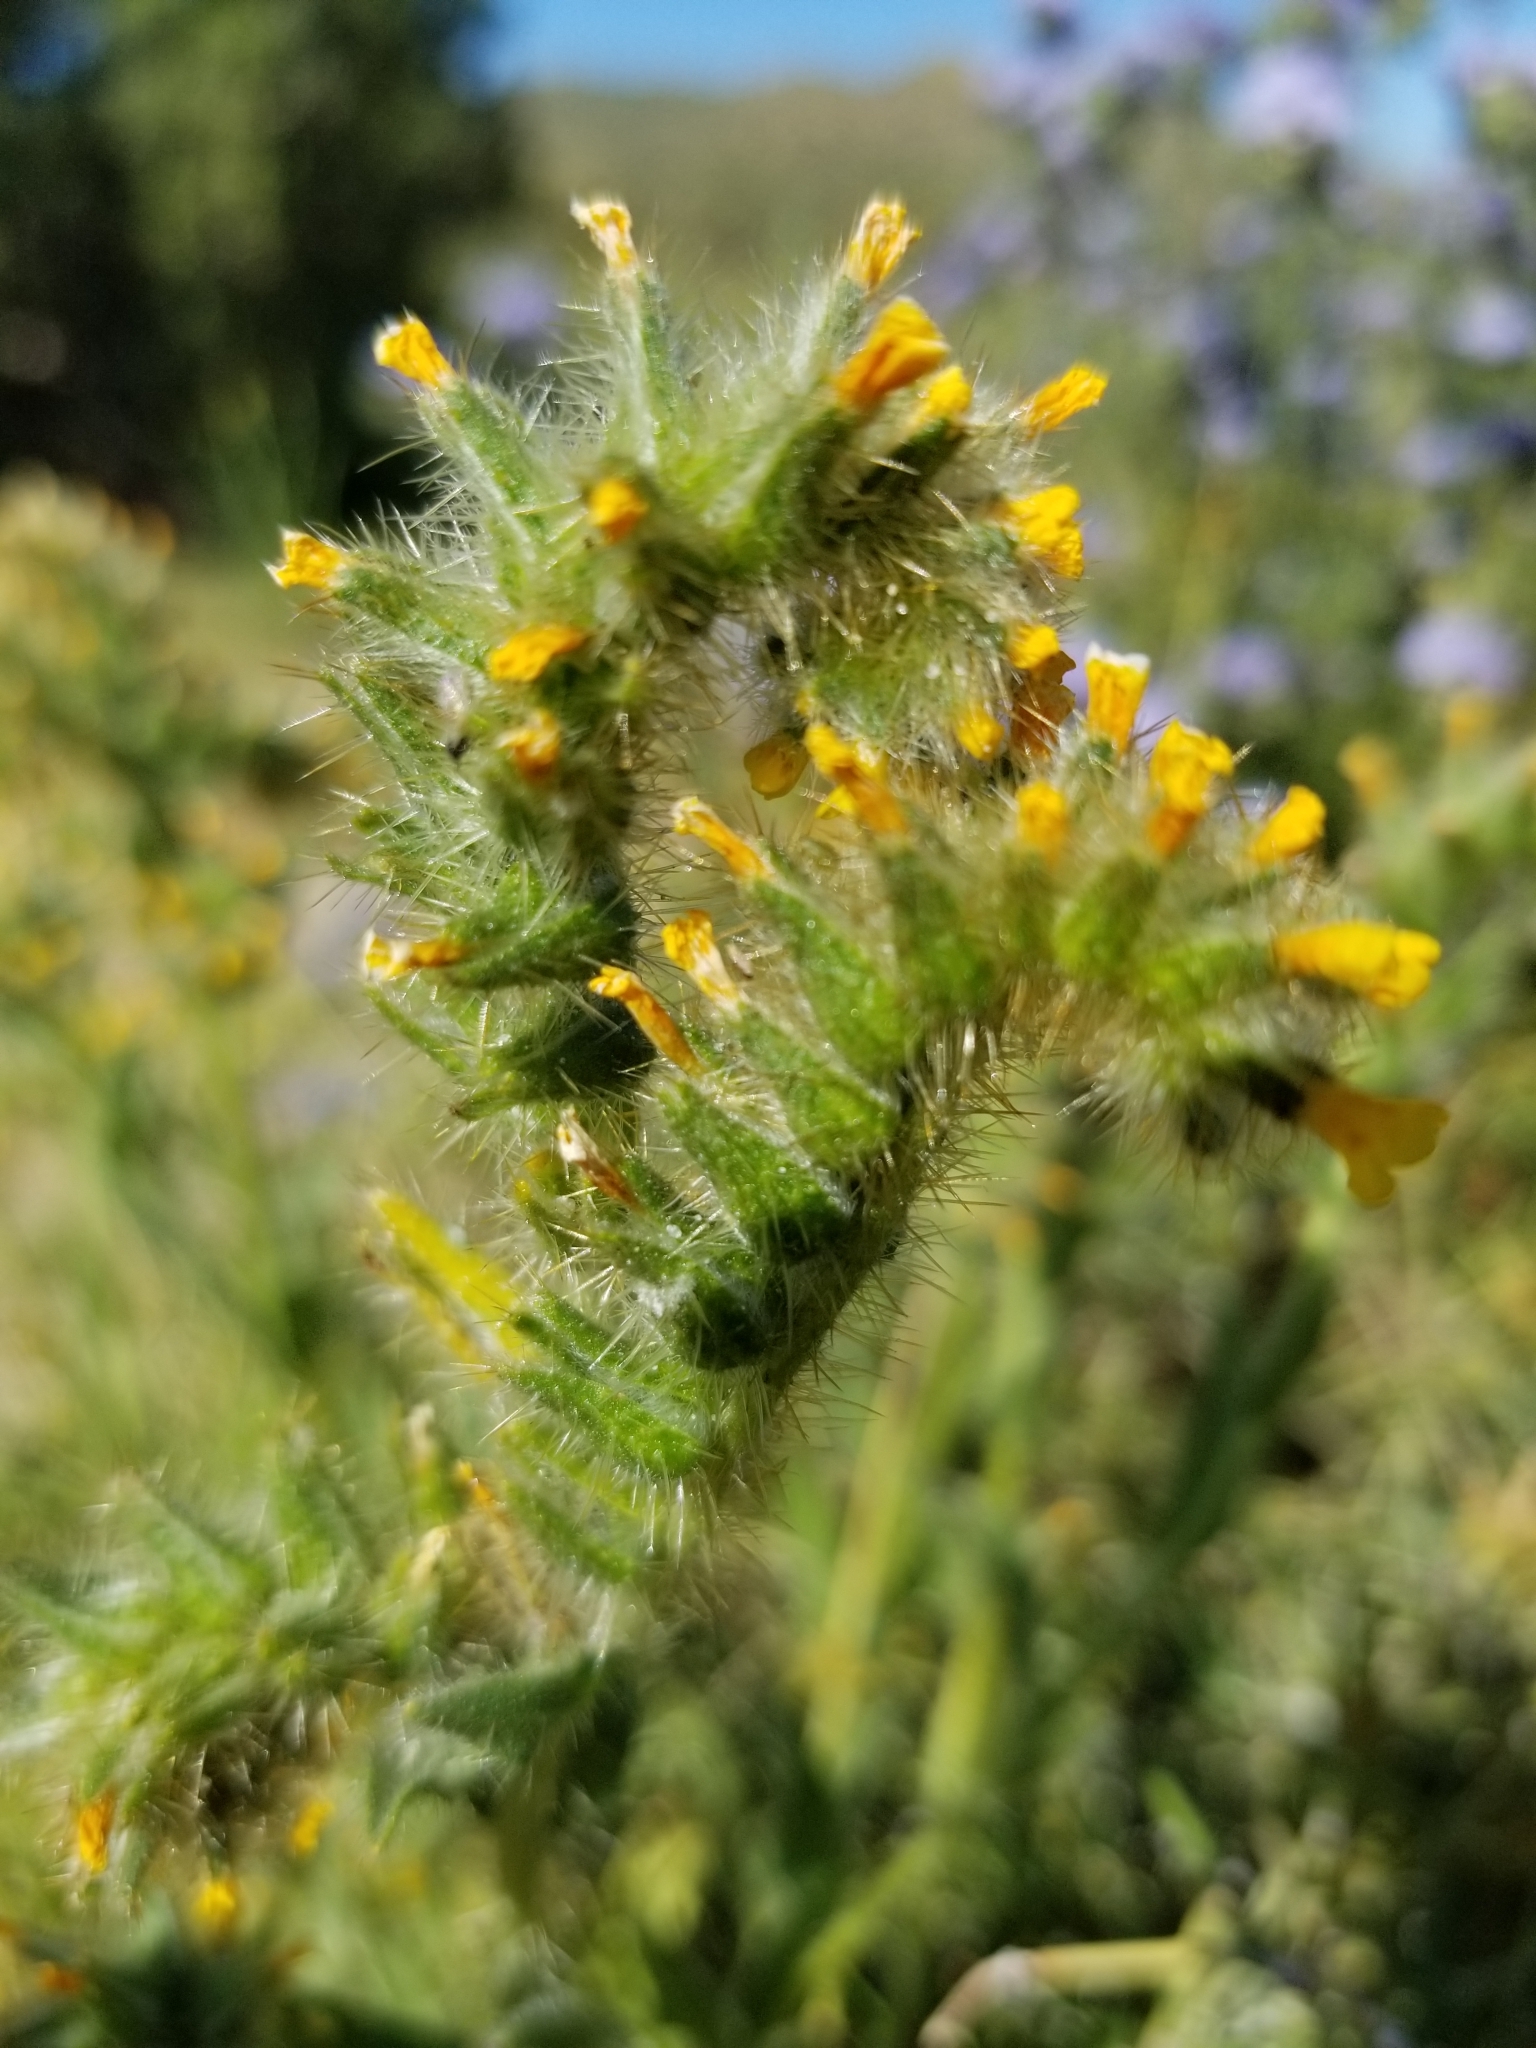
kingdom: Plantae
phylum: Tracheophyta
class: Magnoliopsida
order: Boraginales
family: Boraginaceae
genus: Amsinckia
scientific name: Amsinckia tessellata
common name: Tessellate fiddleneck
